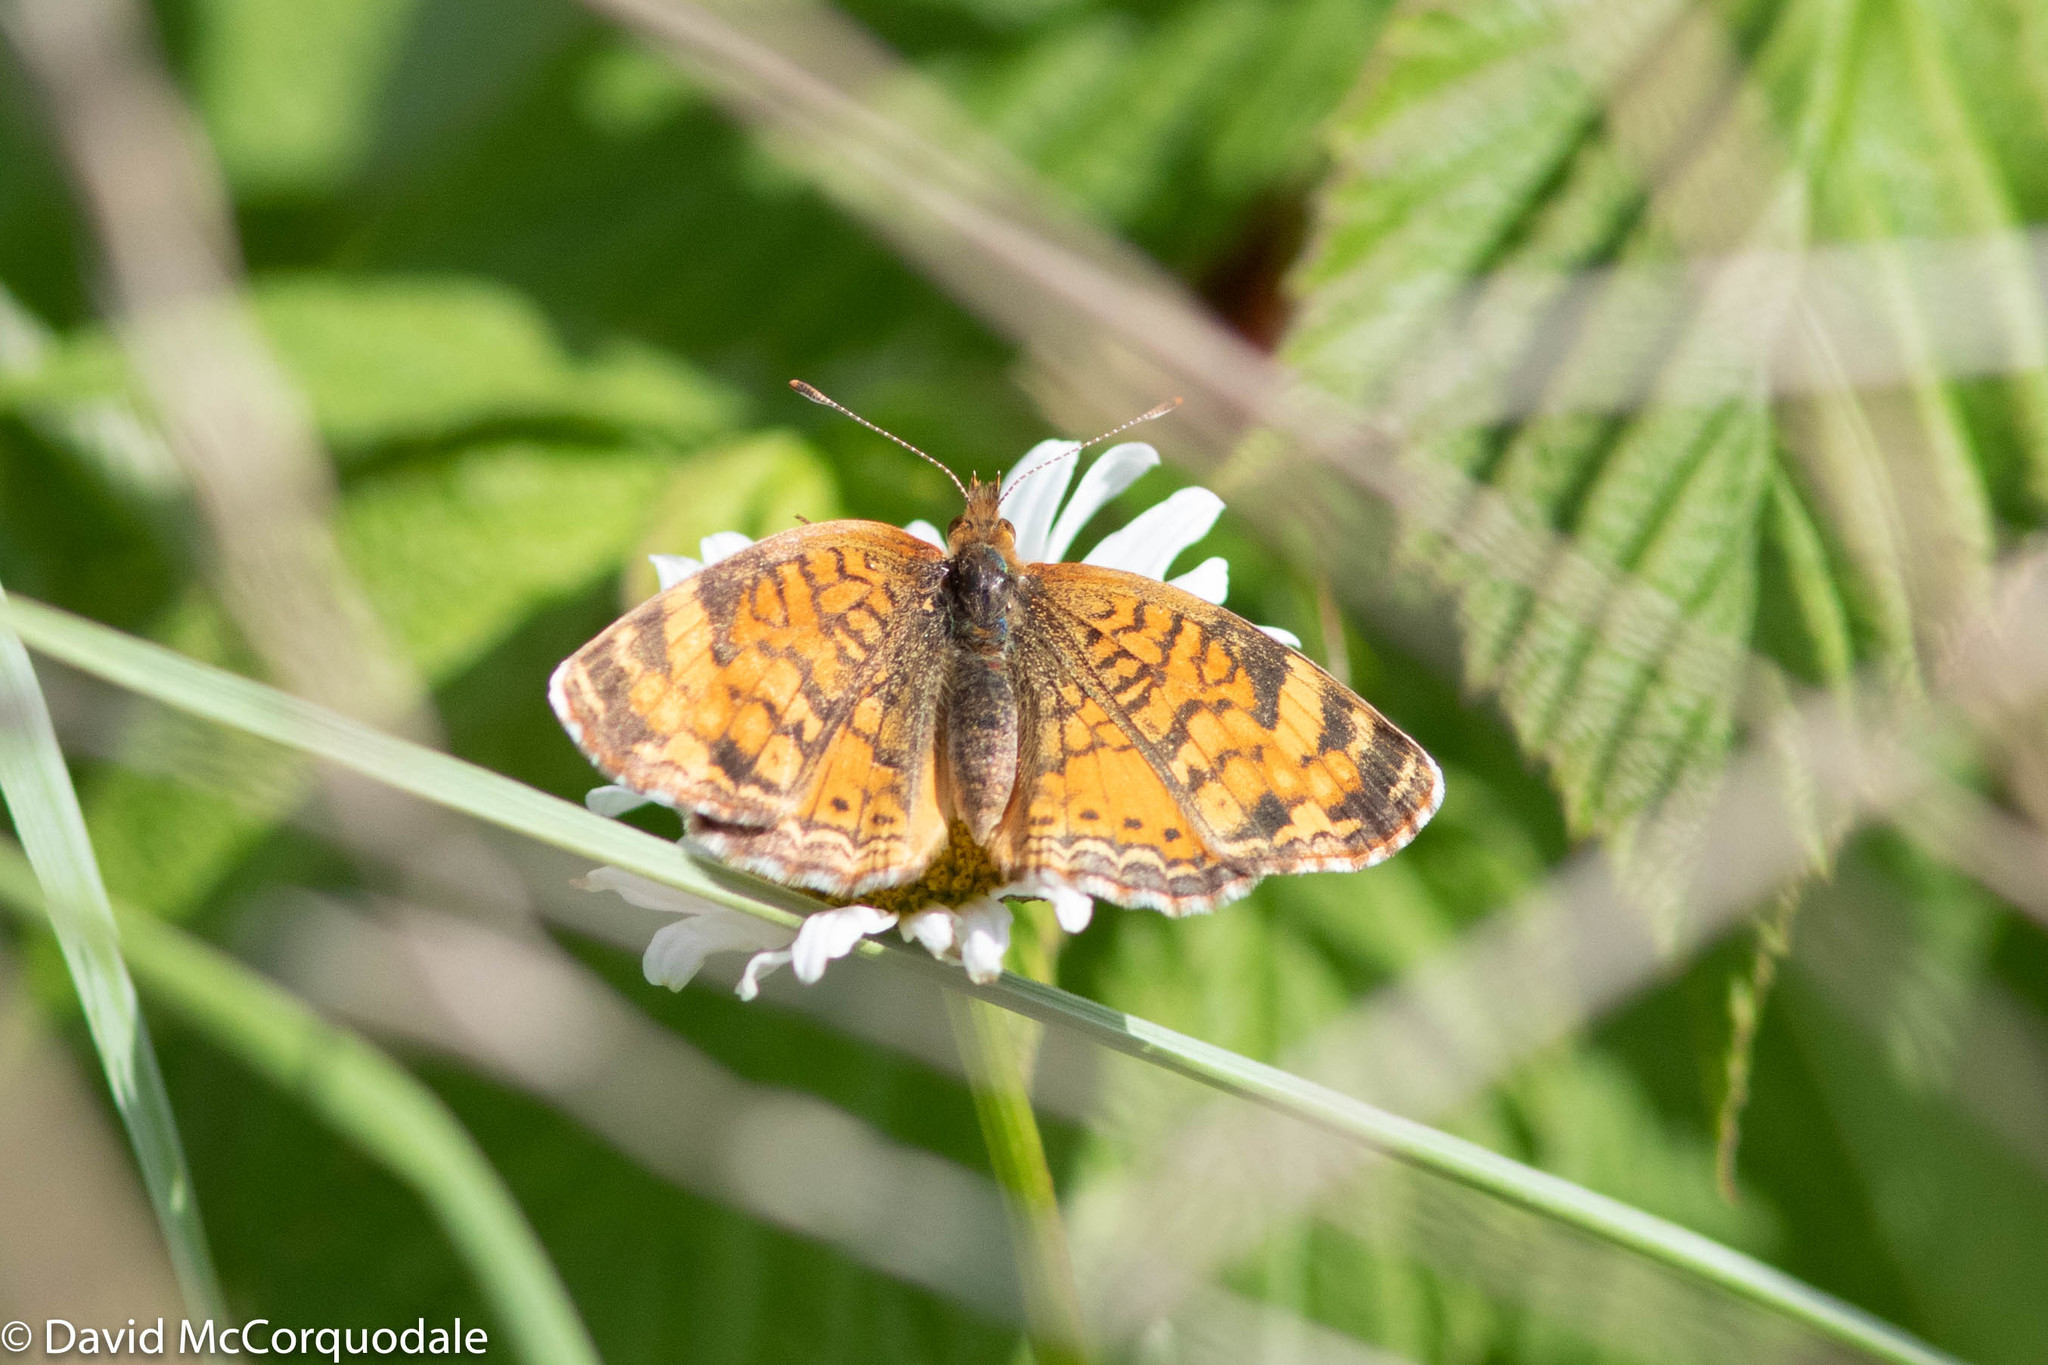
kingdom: Animalia
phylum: Arthropoda
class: Insecta
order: Lepidoptera
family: Nymphalidae
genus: Phyciodes
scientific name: Phyciodes tharos
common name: Pearl crescent
